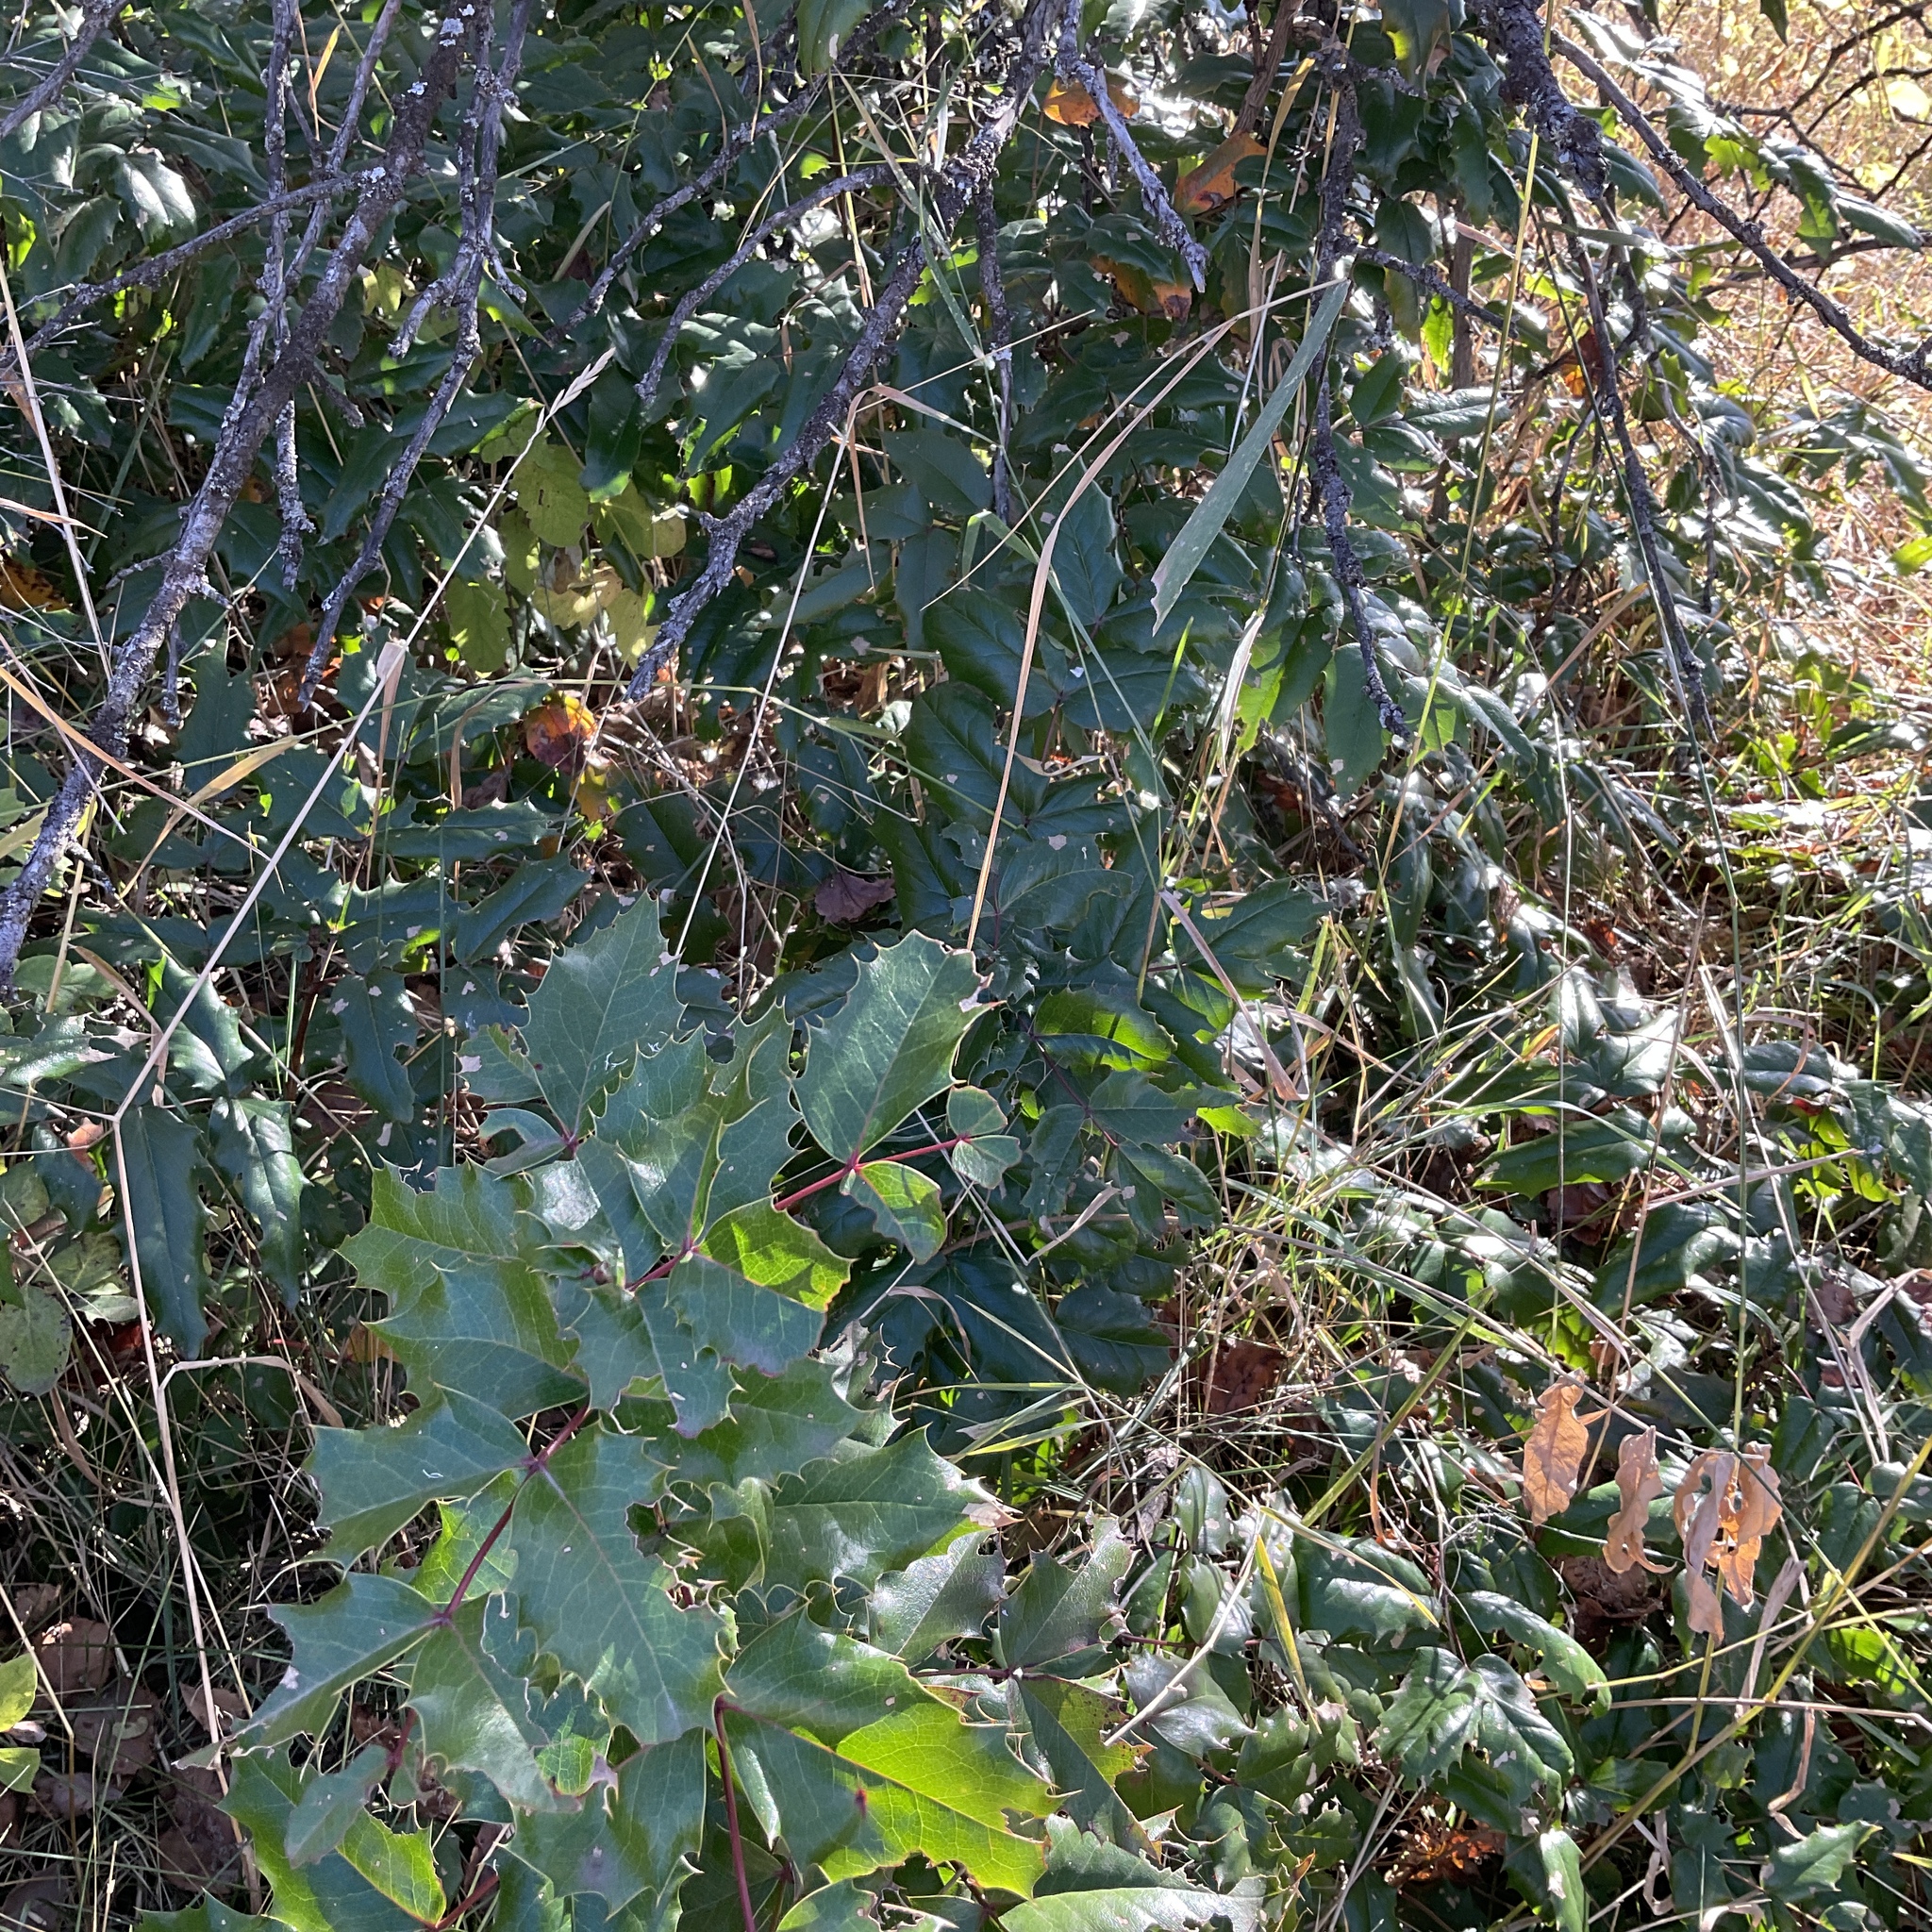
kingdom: Plantae
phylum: Tracheophyta
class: Magnoliopsida
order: Ranunculales
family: Berberidaceae
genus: Mahonia
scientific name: Mahonia aquifolium
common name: Oregon-grape
